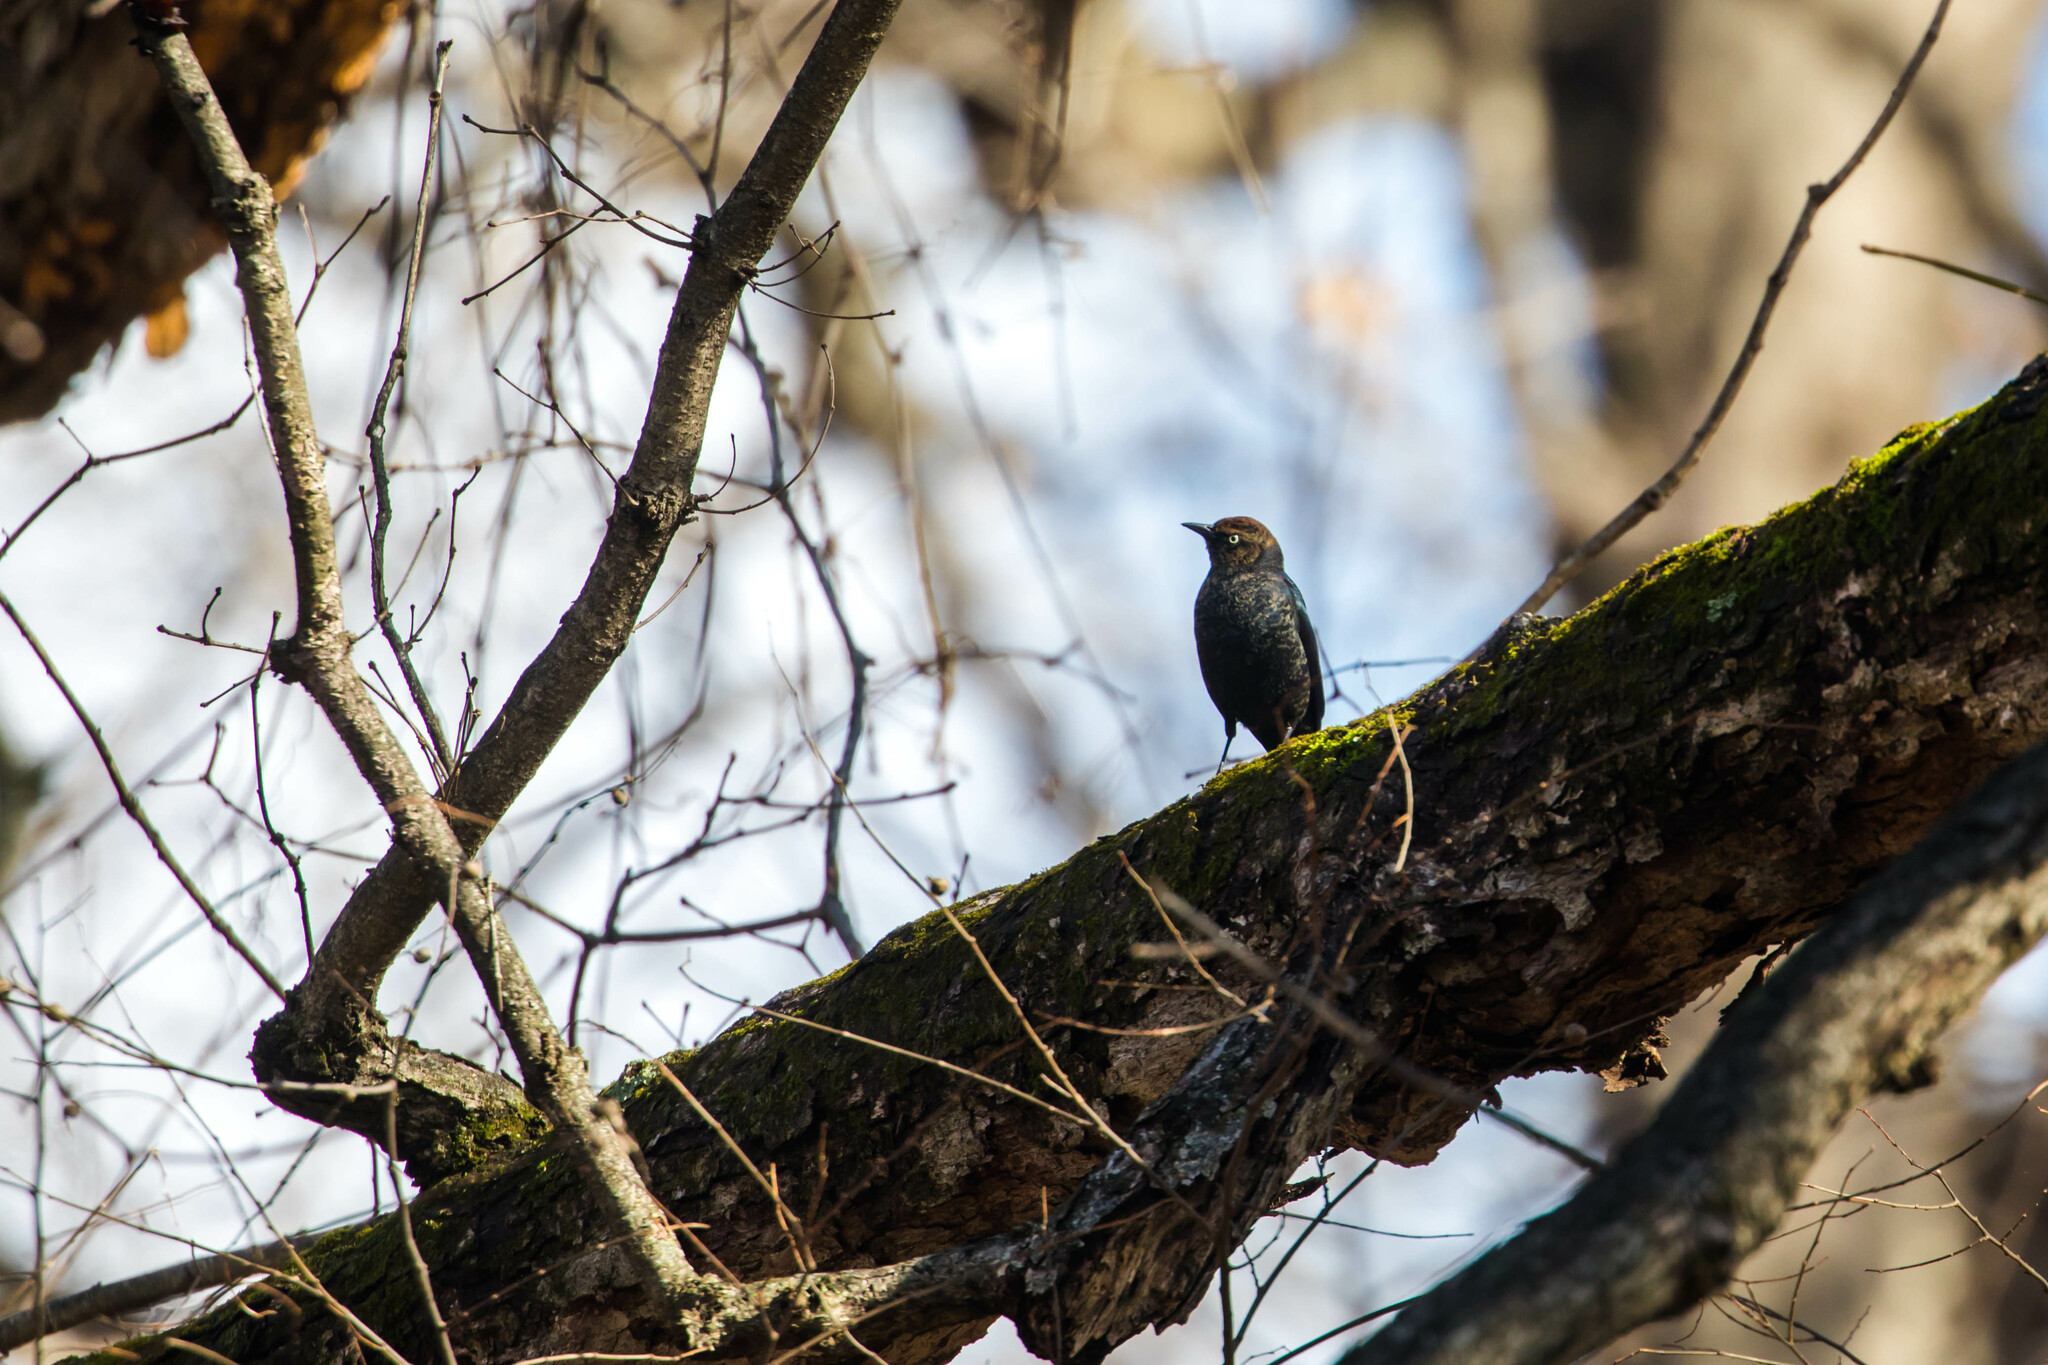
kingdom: Animalia
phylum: Chordata
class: Aves
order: Passeriformes
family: Icteridae
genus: Euphagus
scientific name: Euphagus carolinus
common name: Rusty blackbird
